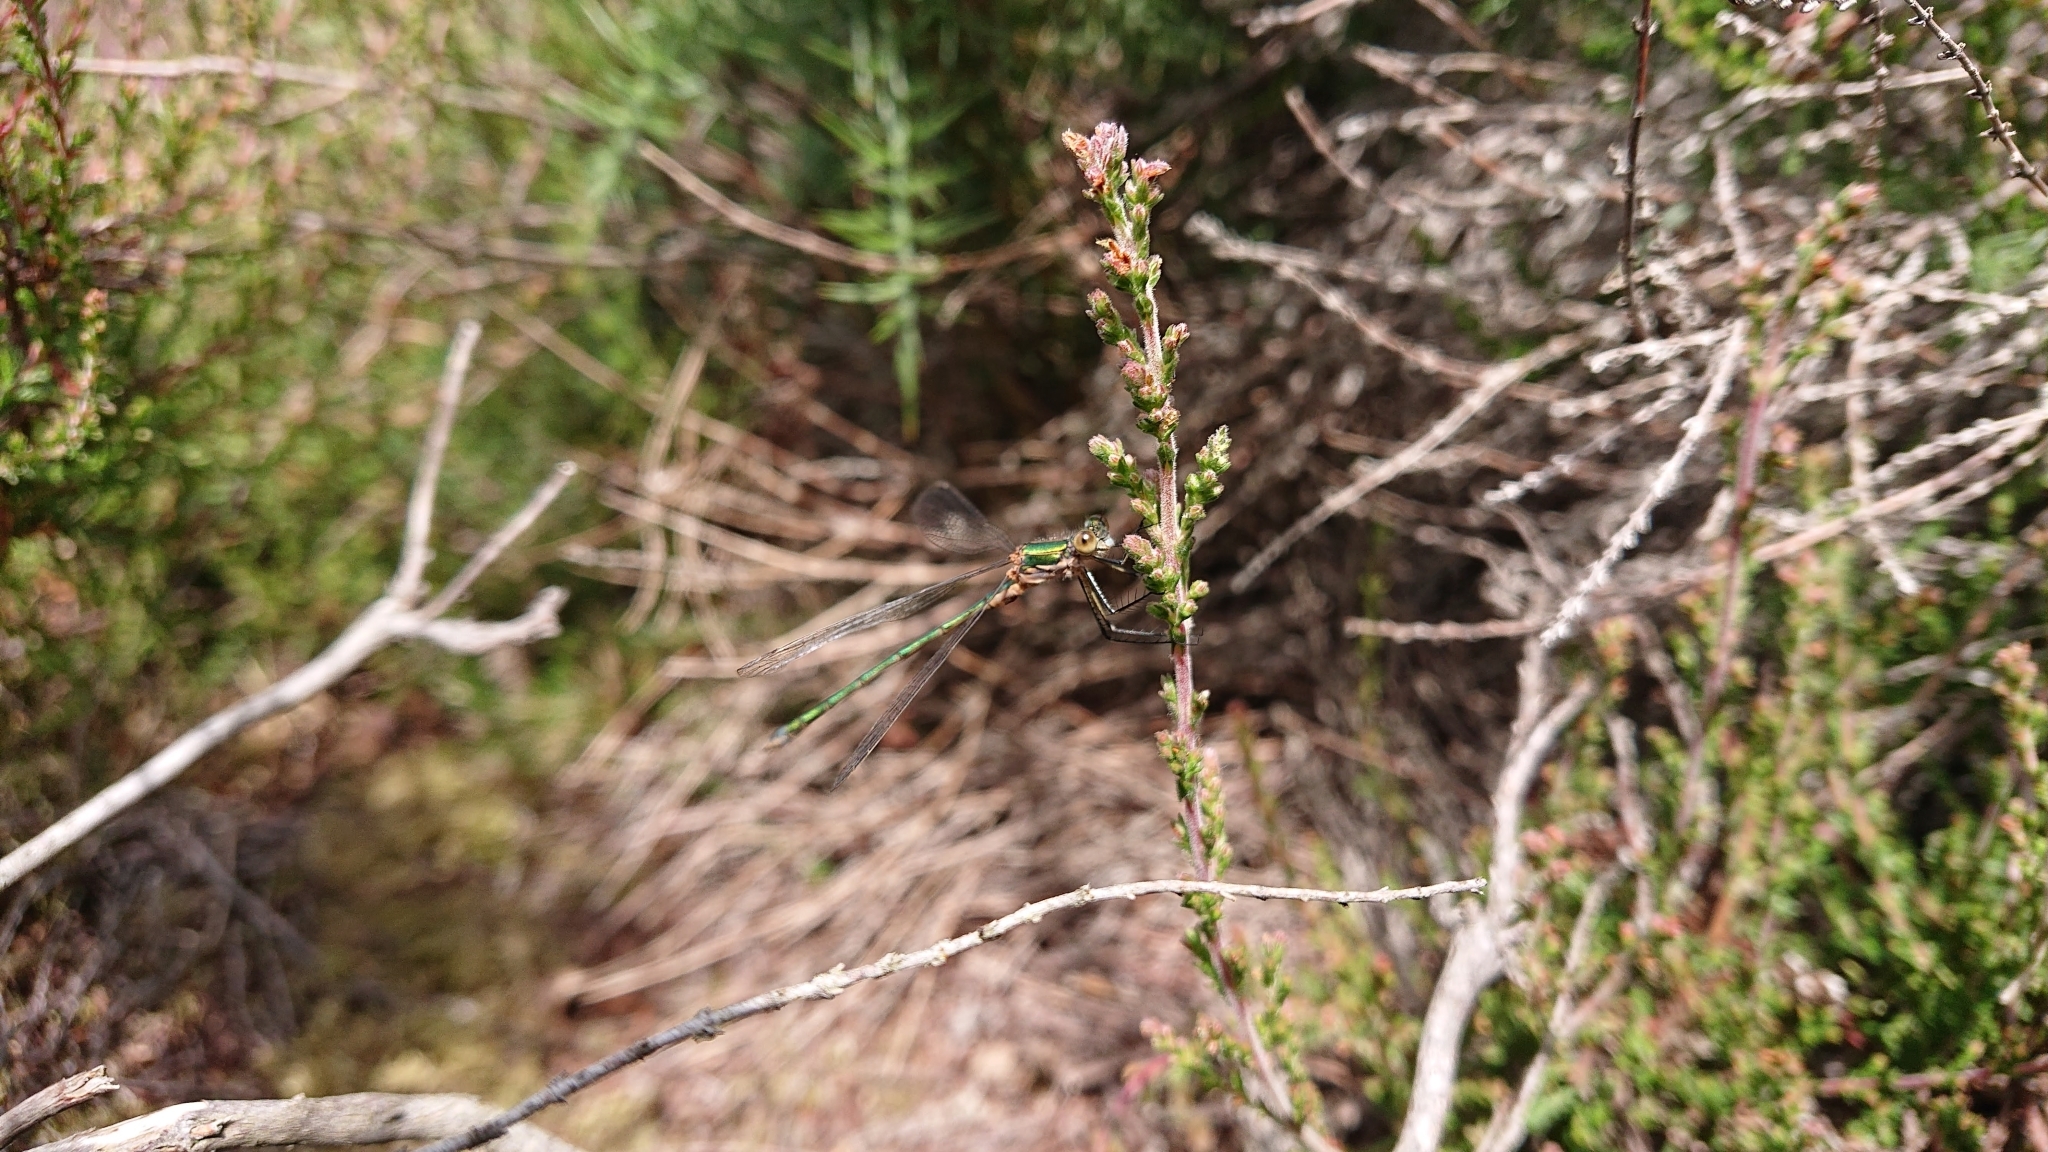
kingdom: Animalia
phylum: Arthropoda
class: Insecta
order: Odonata
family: Lestidae
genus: Lestes
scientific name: Lestes sponsa
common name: Common spreadwing
